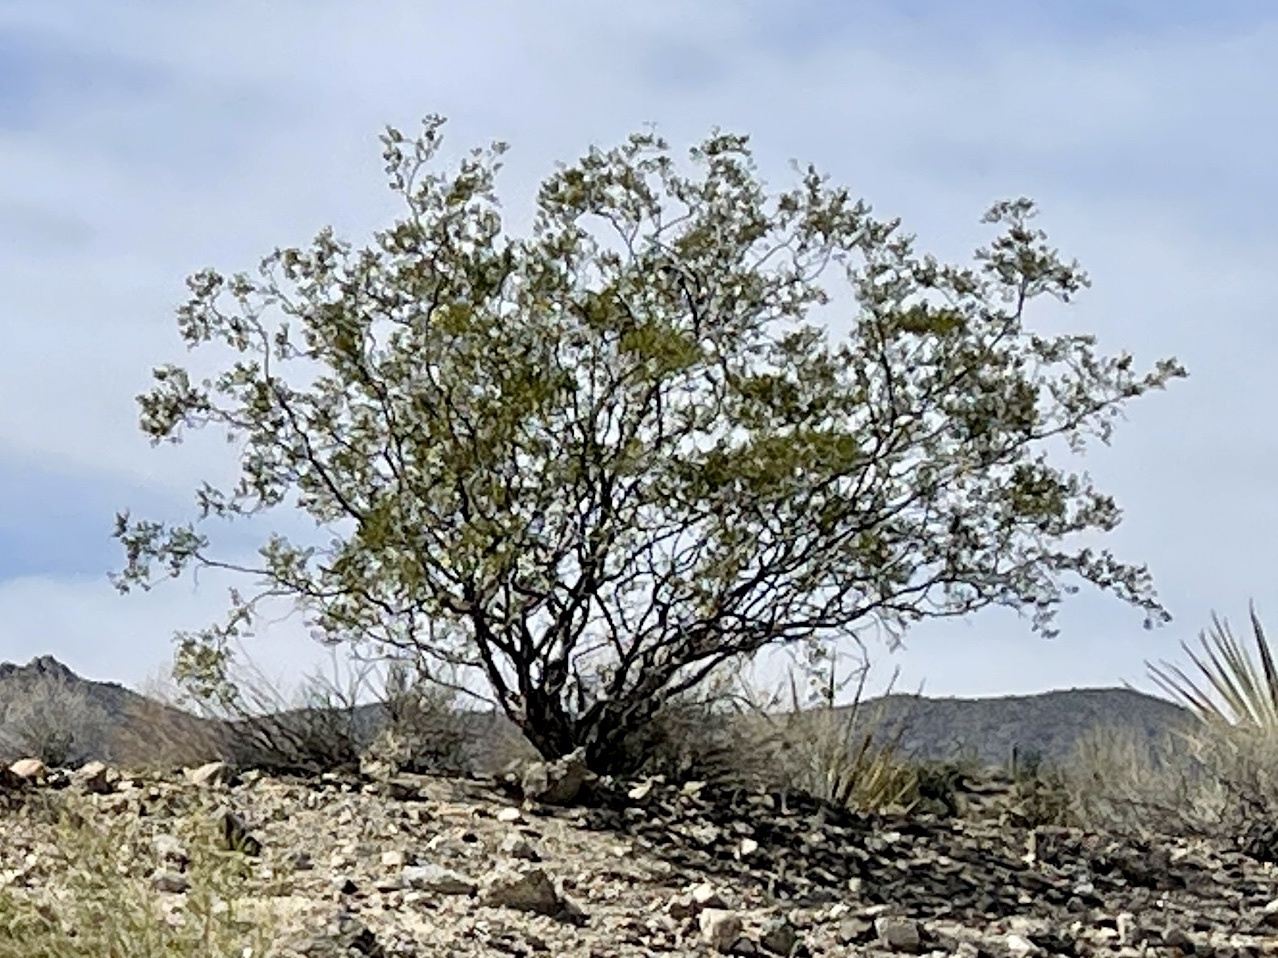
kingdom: Plantae
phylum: Tracheophyta
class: Magnoliopsida
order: Zygophyllales
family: Zygophyllaceae
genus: Larrea
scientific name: Larrea tridentata
